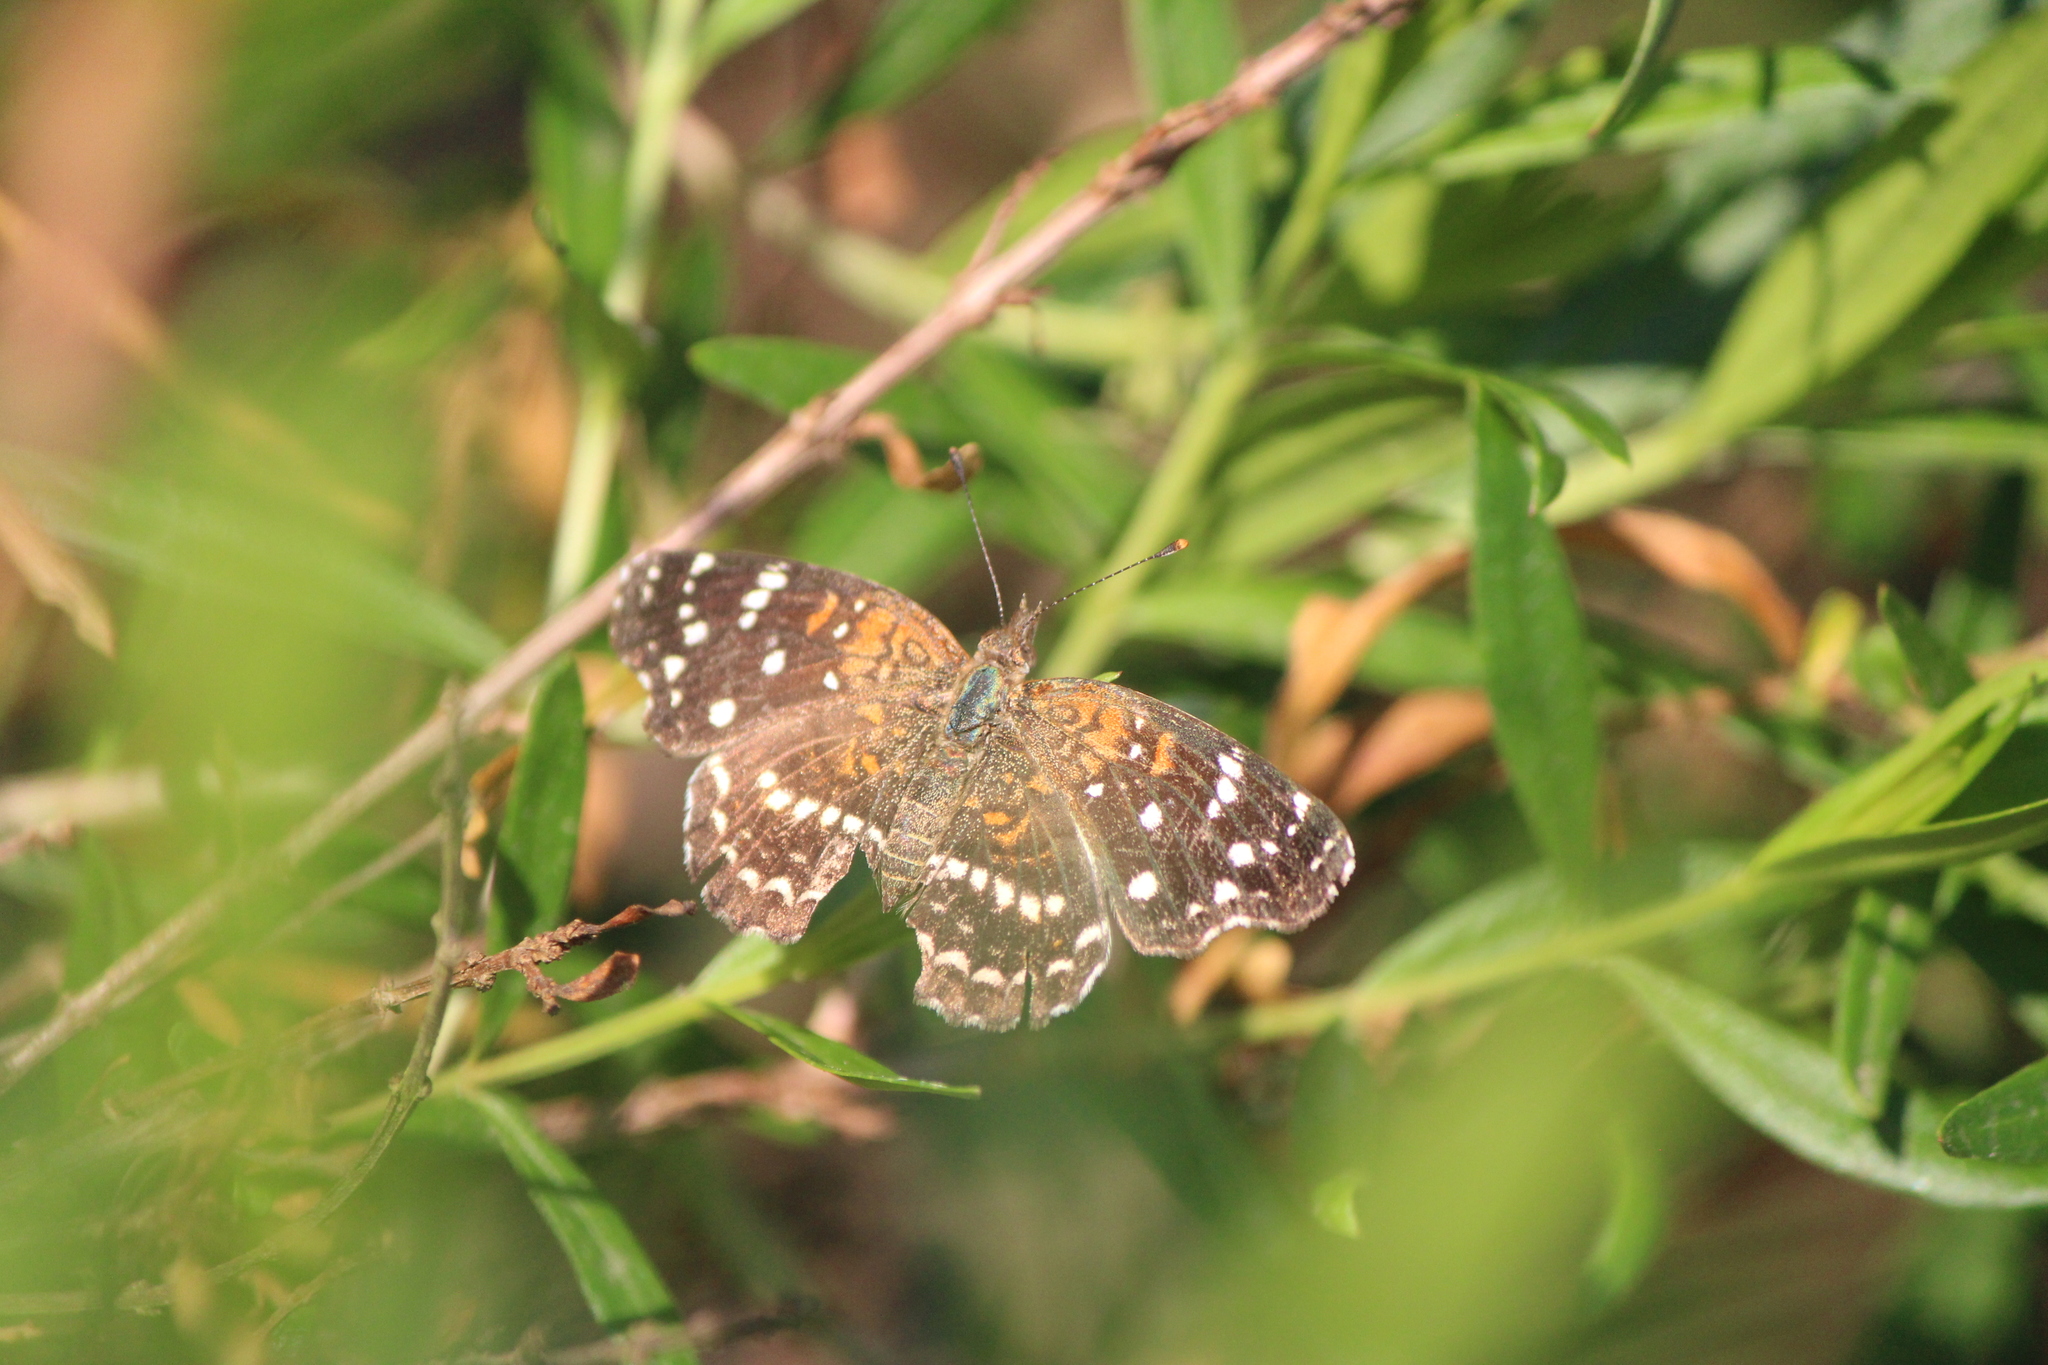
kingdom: Animalia
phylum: Arthropoda
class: Insecta
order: Lepidoptera
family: Nymphalidae
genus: Anthanassa
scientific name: Anthanassa texana
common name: Texan crescent
